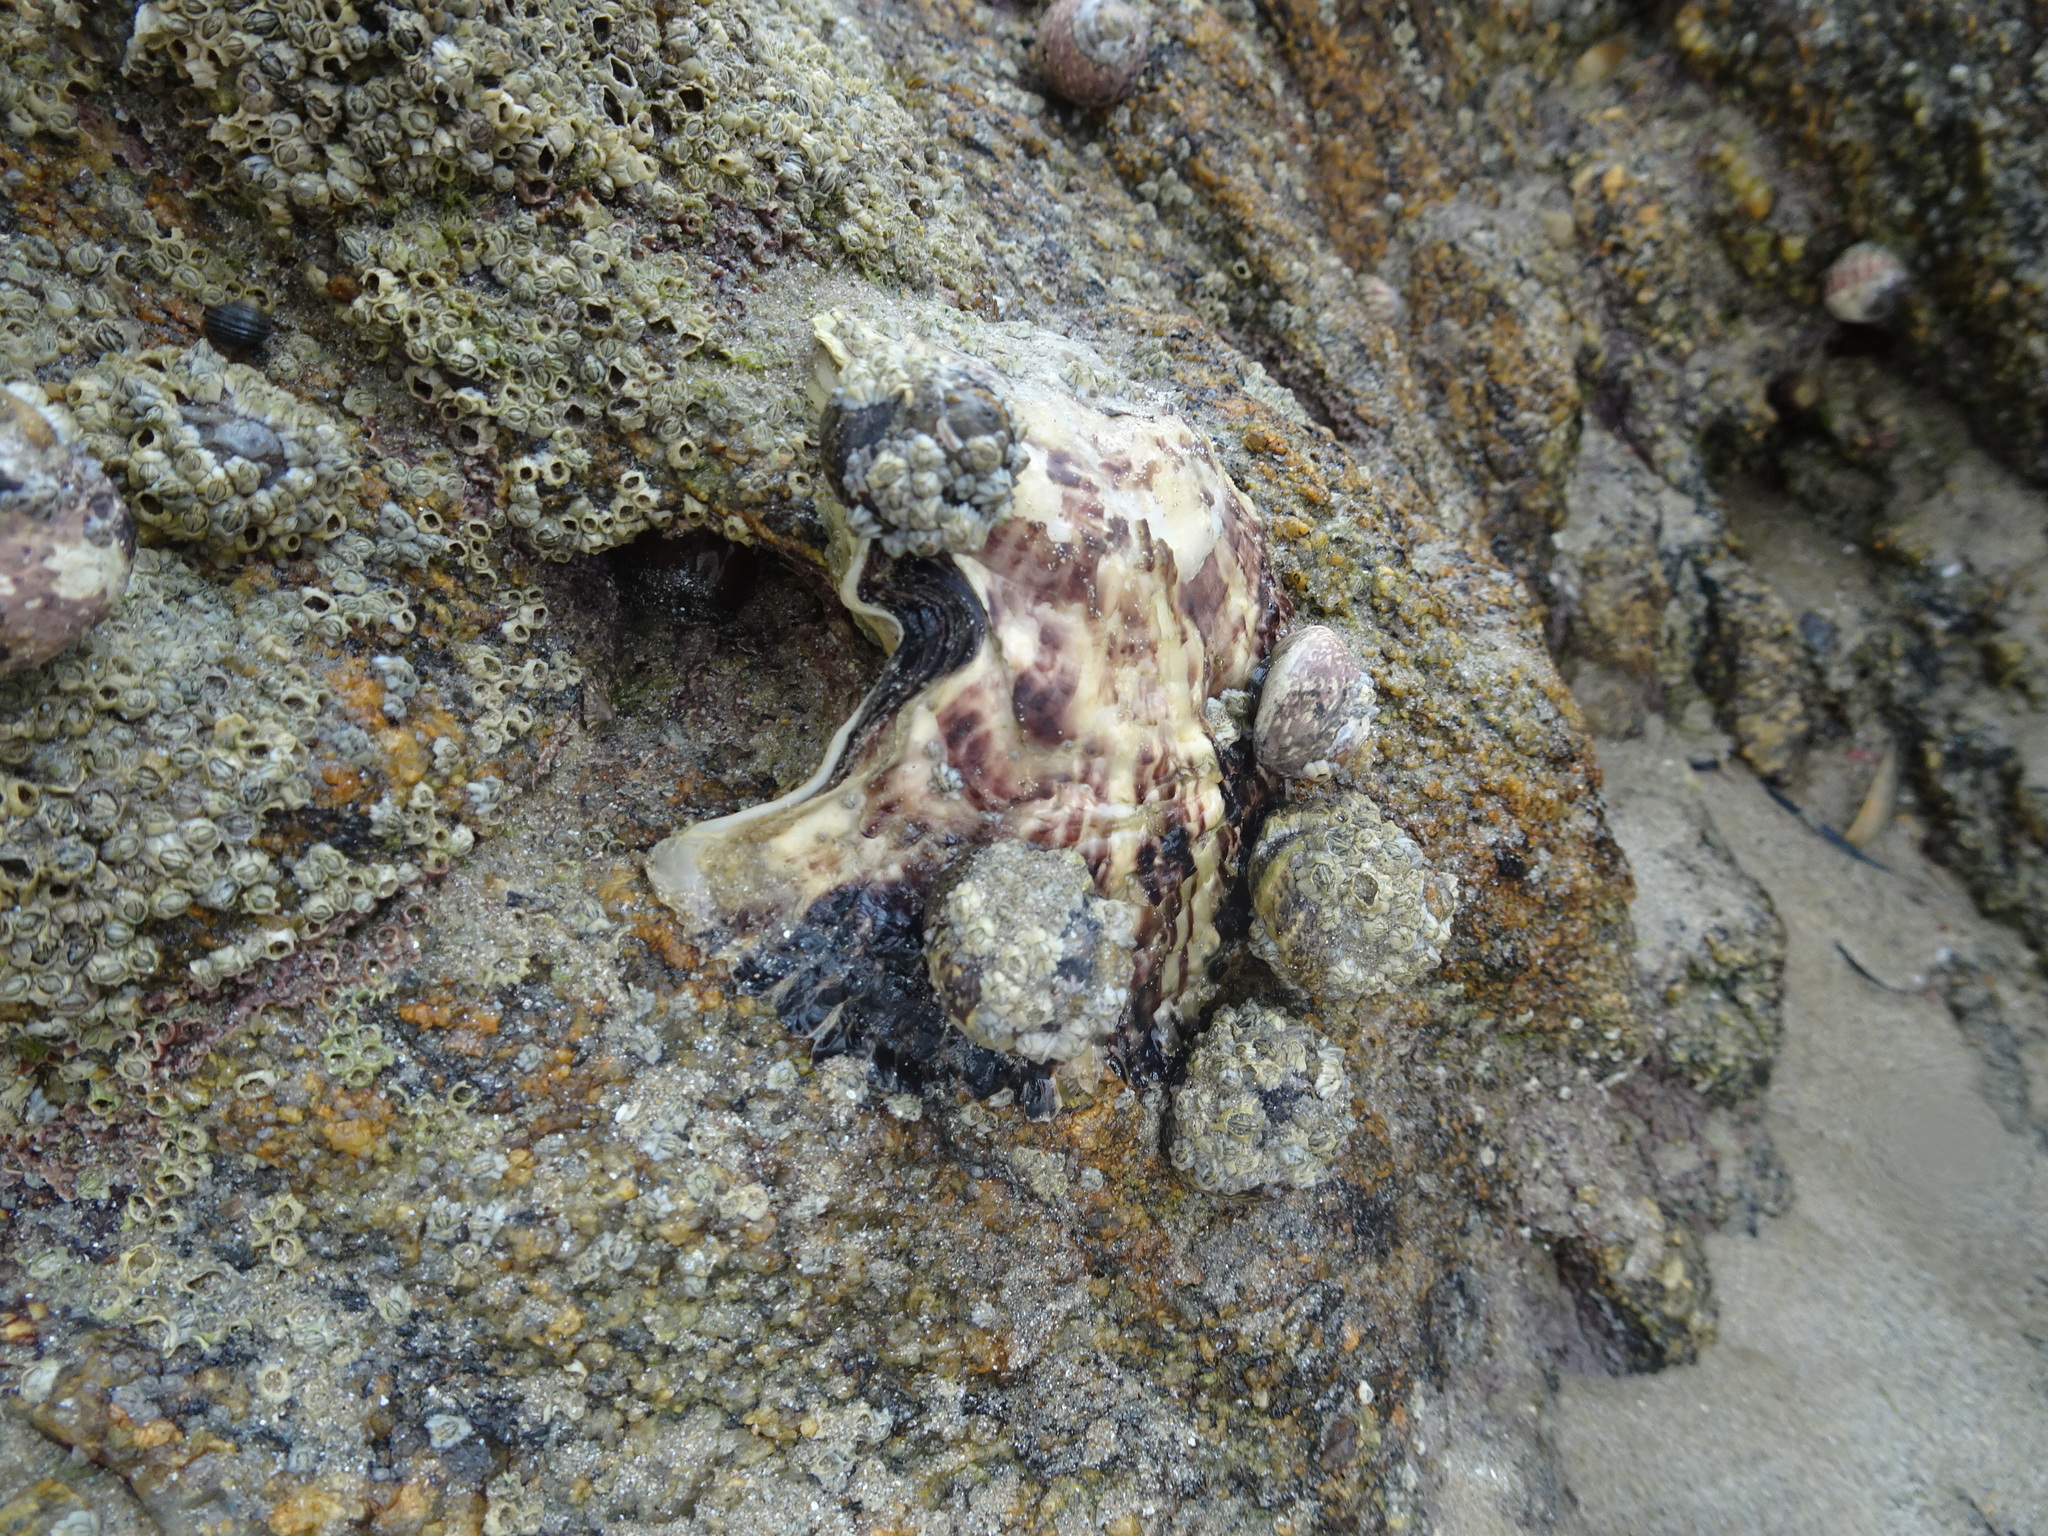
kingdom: Animalia
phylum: Mollusca
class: Bivalvia
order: Ostreida
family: Ostreidae
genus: Magallana
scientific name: Magallana gigas
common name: Pacific oyster
